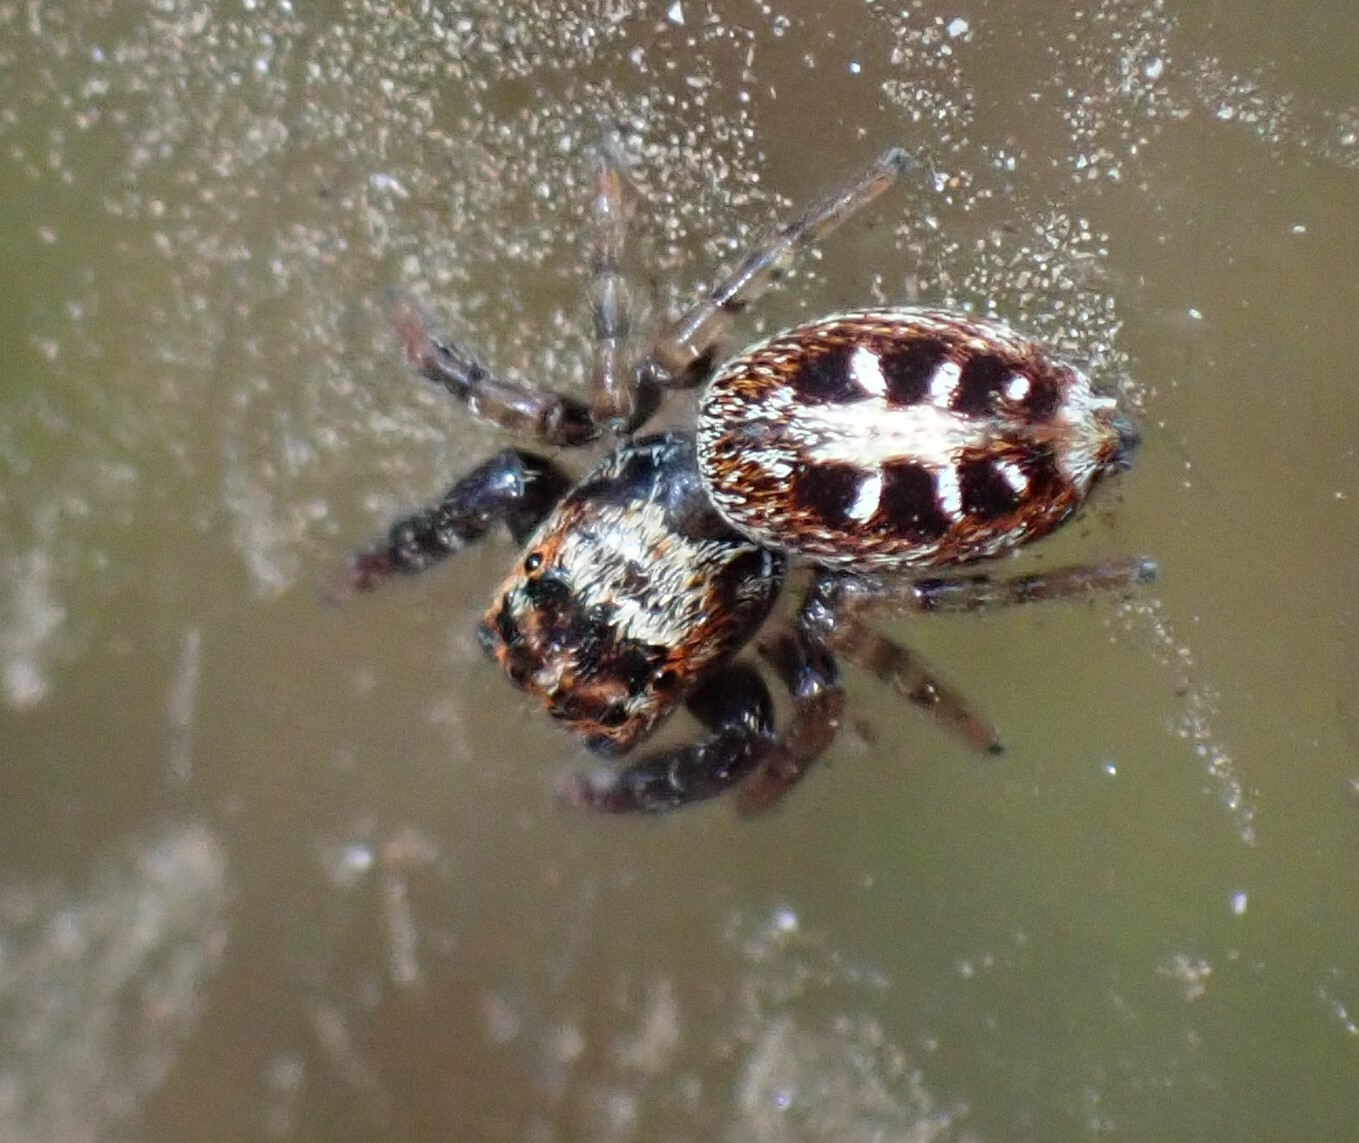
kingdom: Animalia
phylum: Arthropoda
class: Arachnida
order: Araneae
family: Salticidae
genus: Opisthoncus
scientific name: Opisthoncus sexmaculatus
